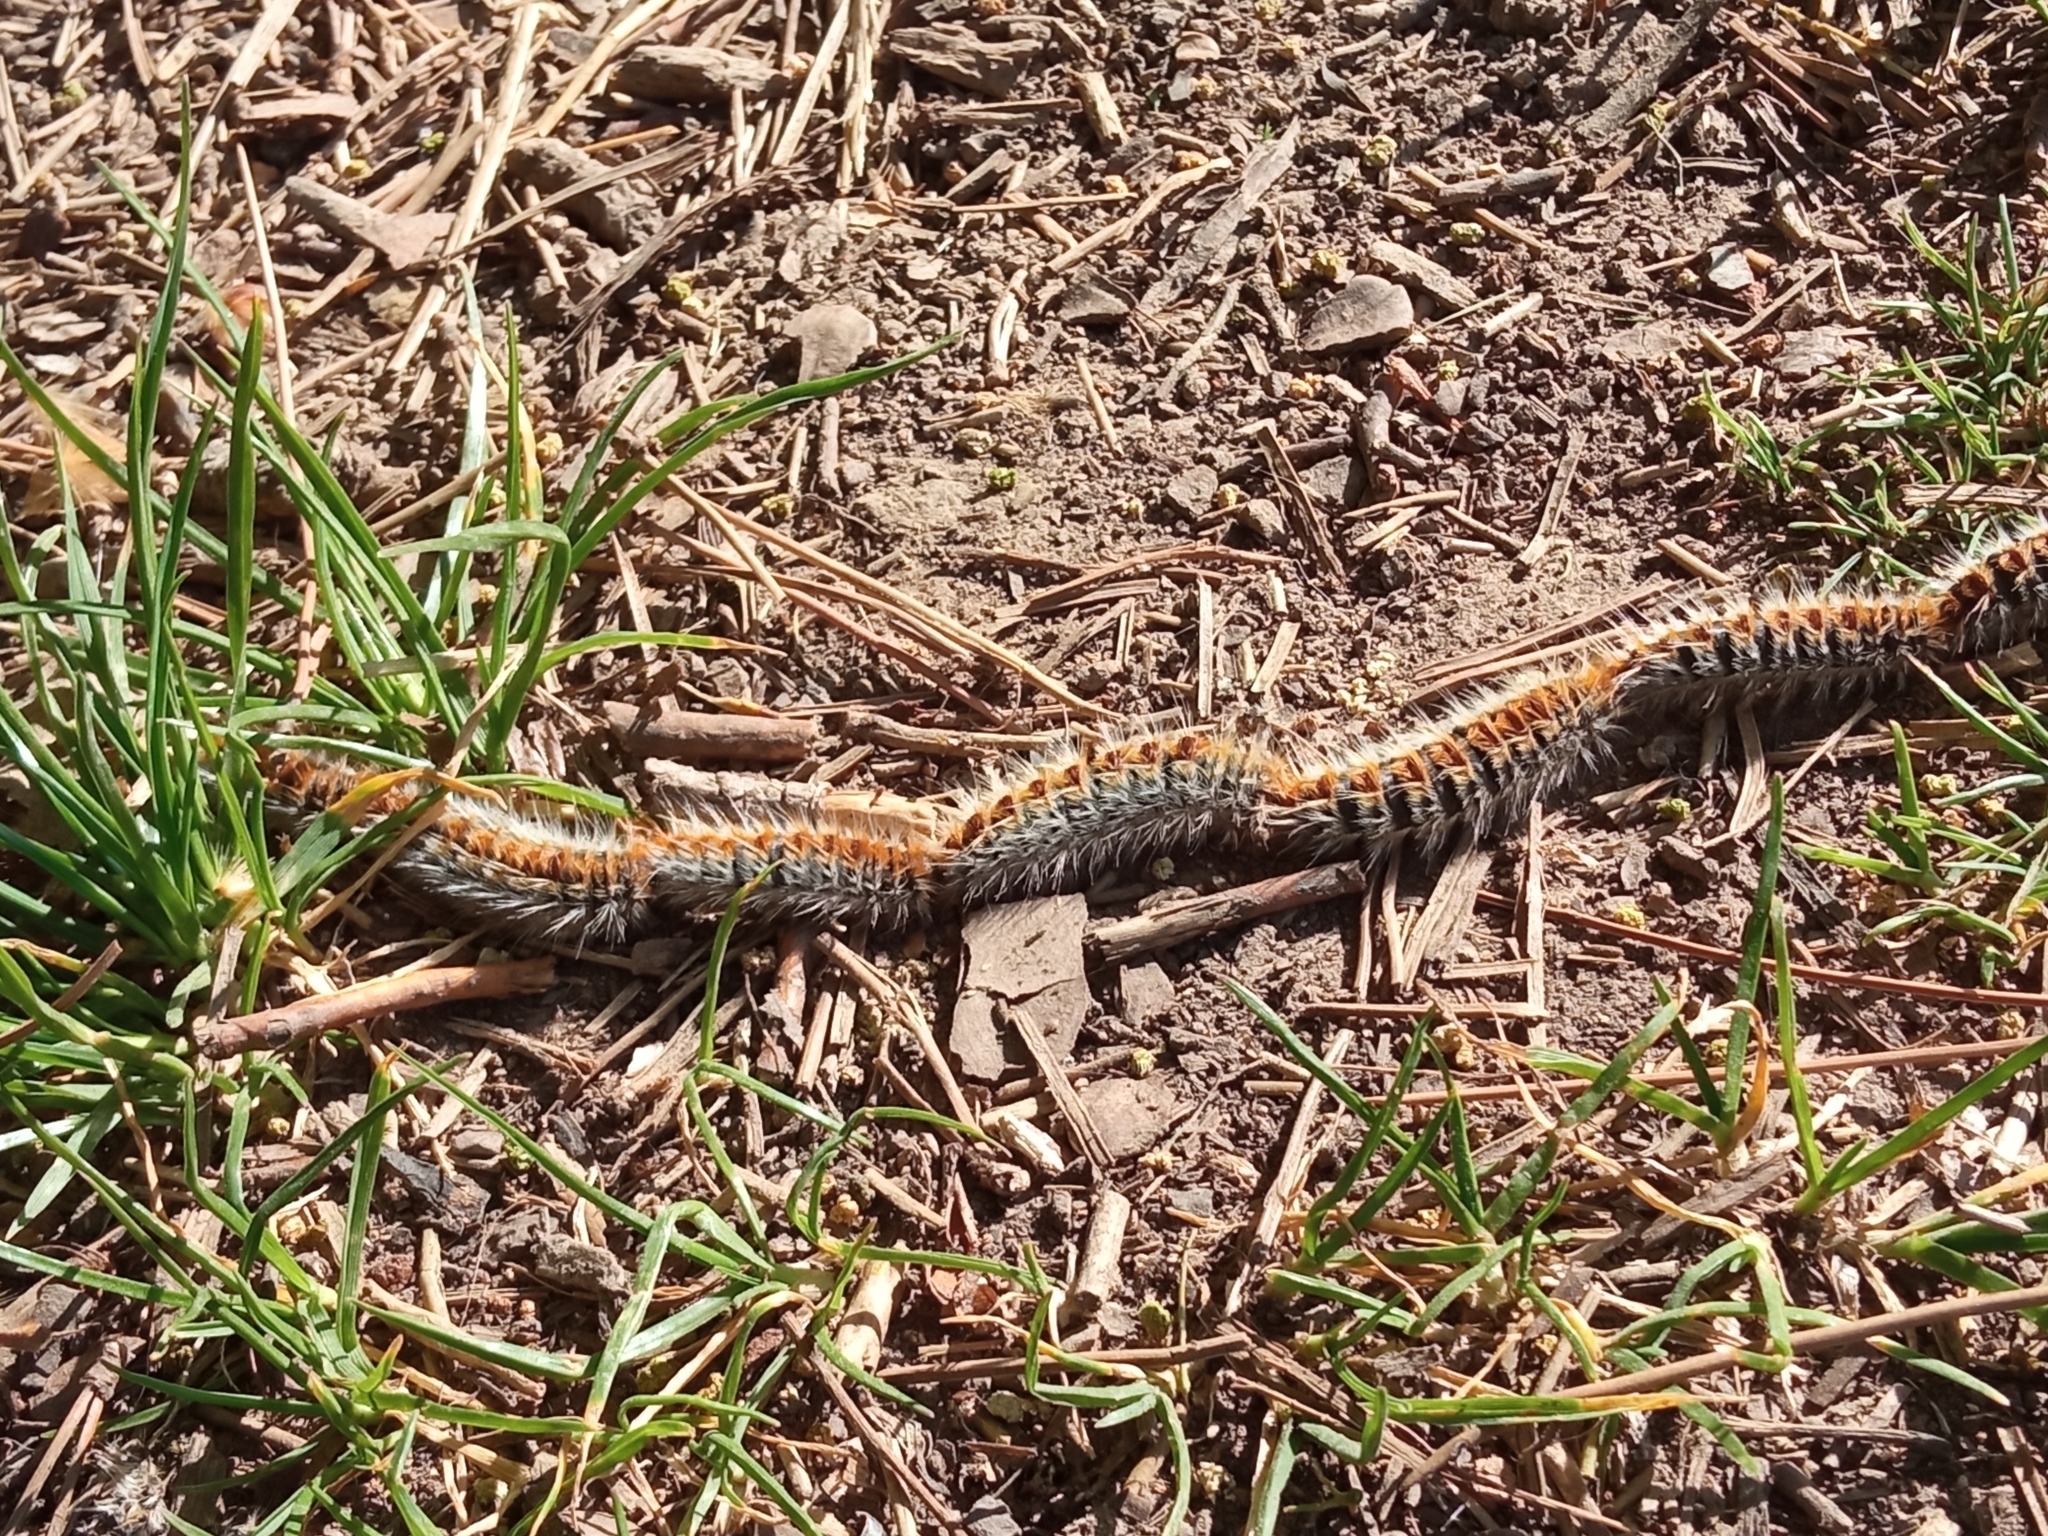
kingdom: Animalia
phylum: Arthropoda
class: Insecta
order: Lepidoptera
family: Notodontidae
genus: Thaumetopoea
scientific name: Thaumetopoea pityocampa
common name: Pine processionary
